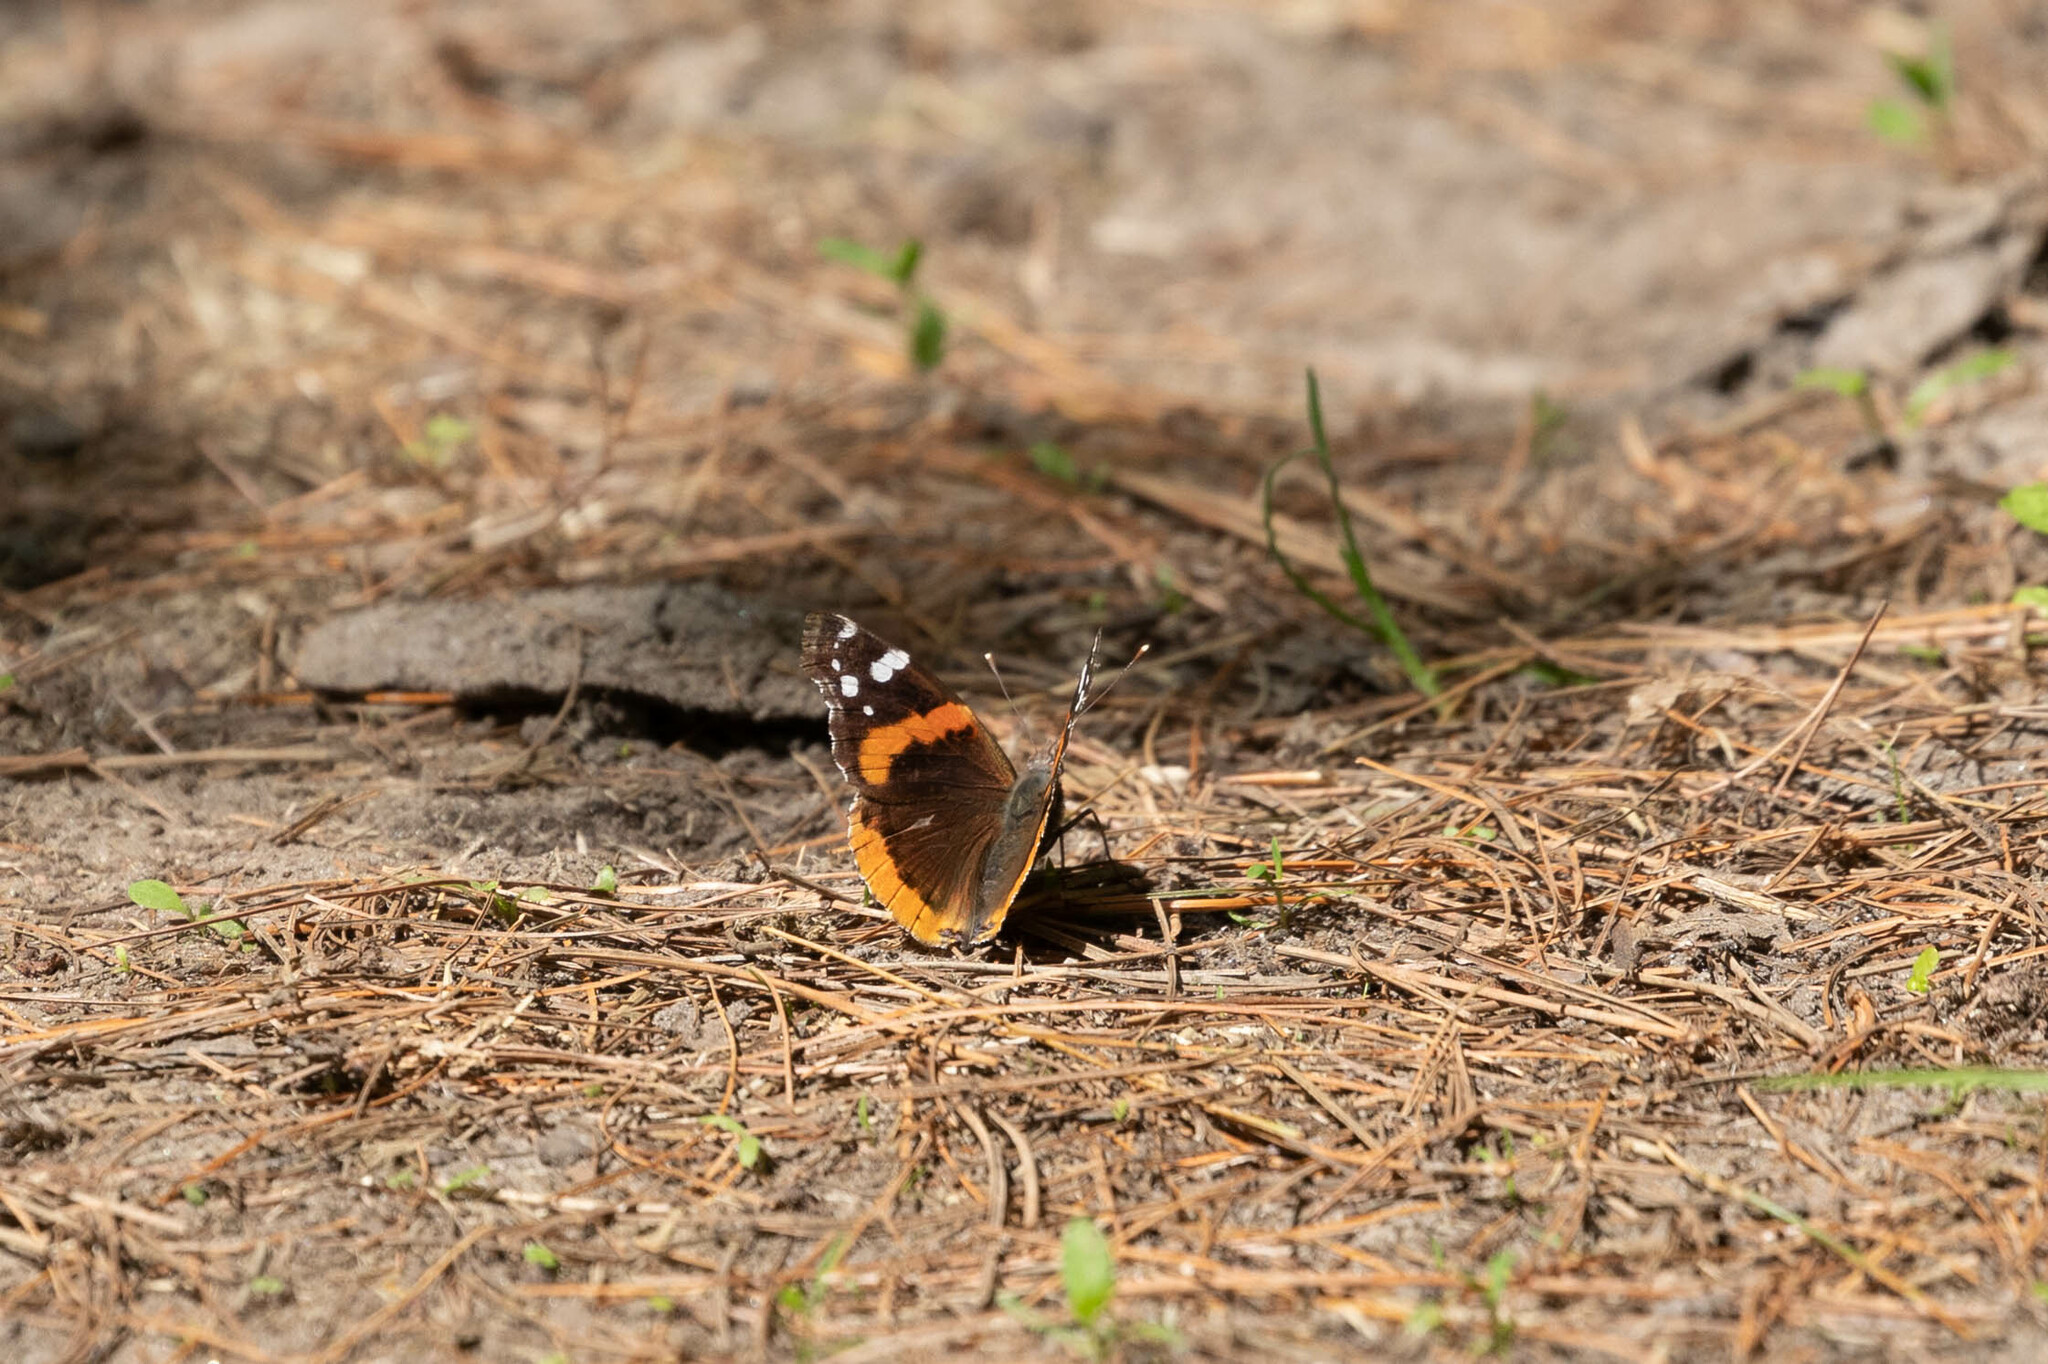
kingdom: Animalia
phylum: Arthropoda
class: Insecta
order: Lepidoptera
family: Nymphalidae
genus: Vanessa
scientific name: Vanessa atalanta
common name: Red admiral
